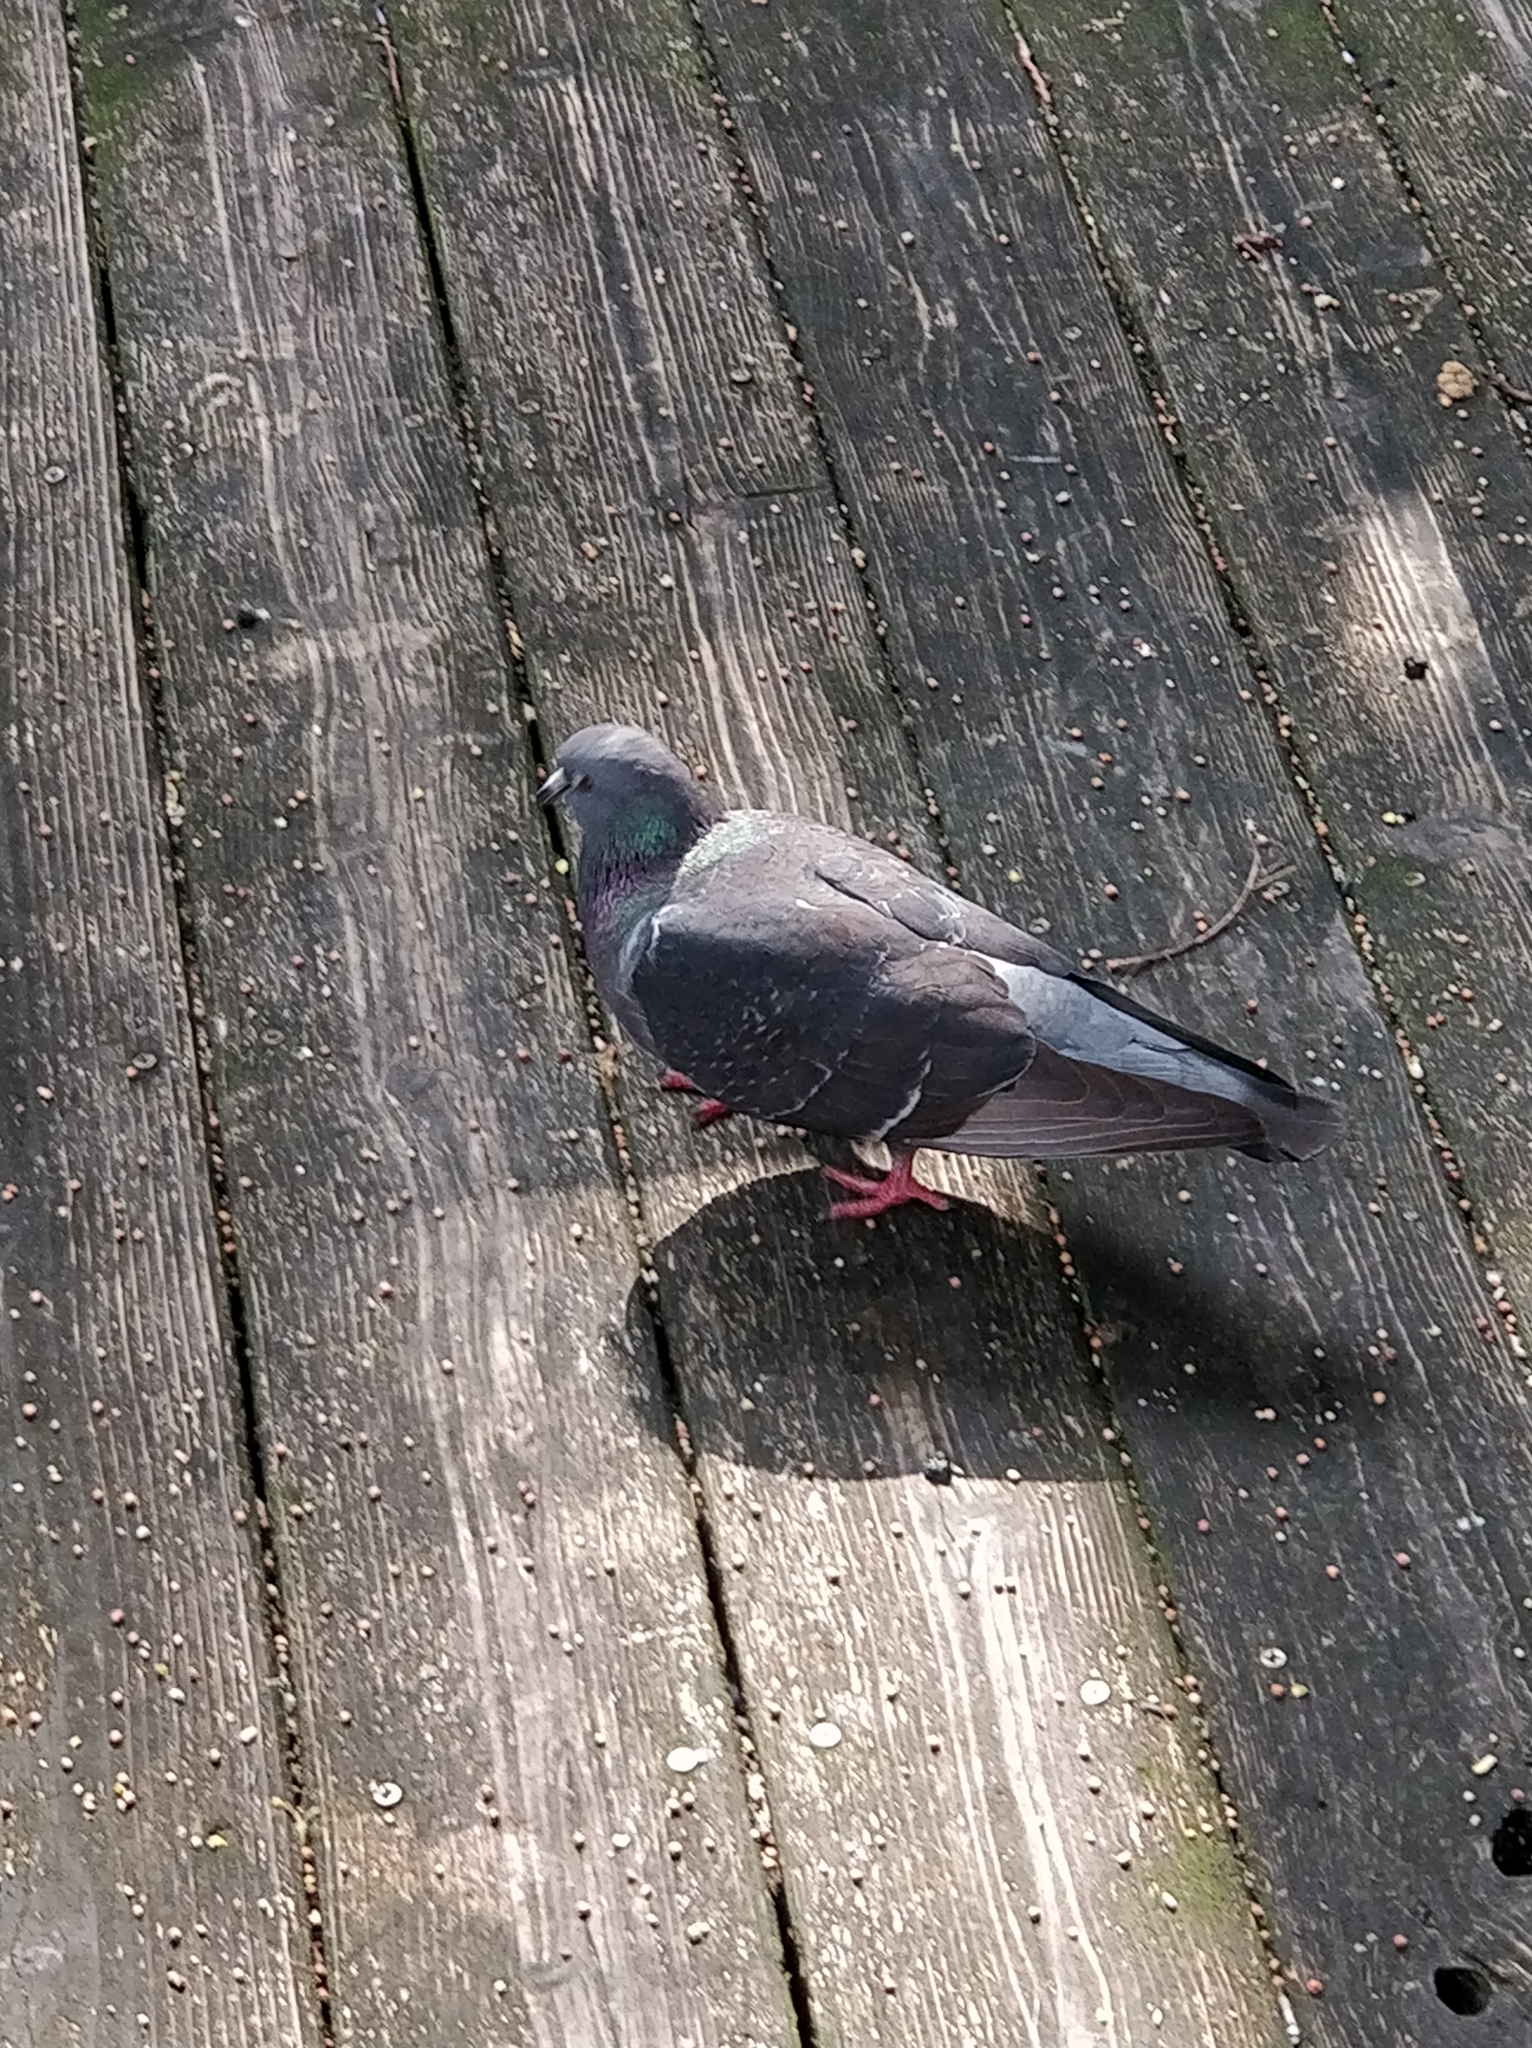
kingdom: Animalia
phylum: Chordata
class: Aves
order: Columbiformes
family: Columbidae
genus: Columba
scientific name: Columba livia
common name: Rock pigeon
